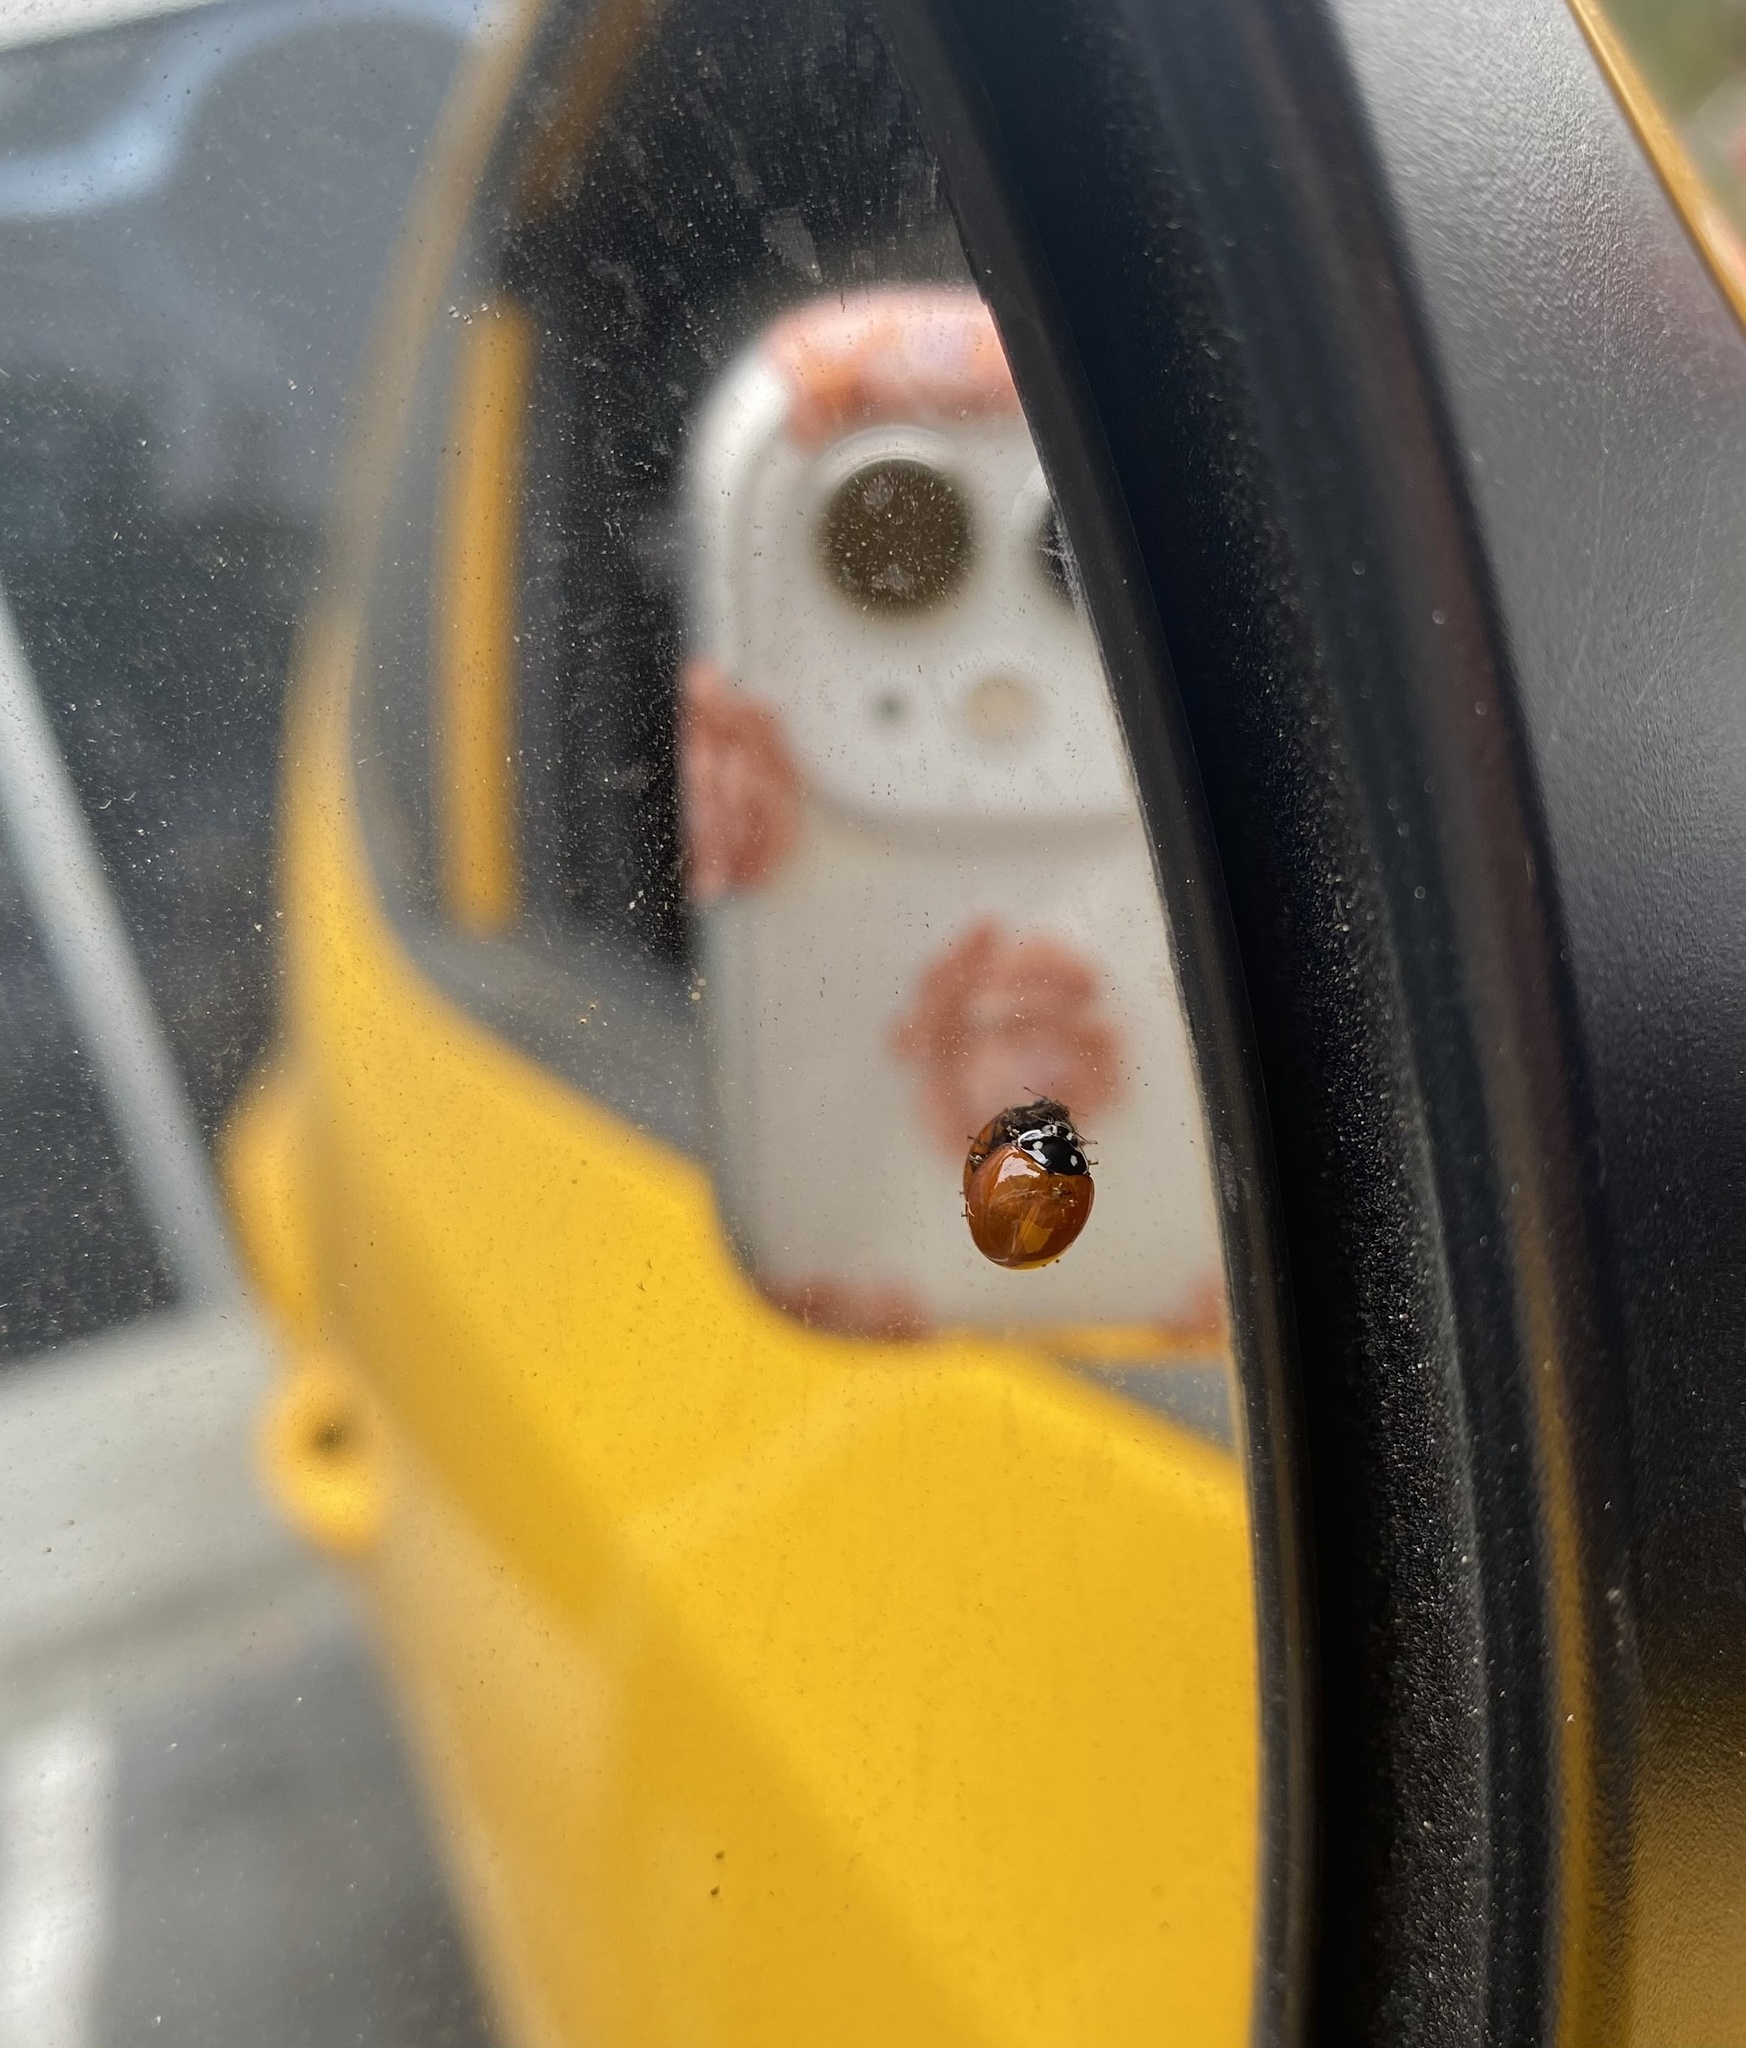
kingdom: Animalia
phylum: Arthropoda
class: Insecta
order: Coleoptera
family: Coccinellidae
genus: Cycloneda
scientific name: Cycloneda sanguinea
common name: Ladybird beetle
